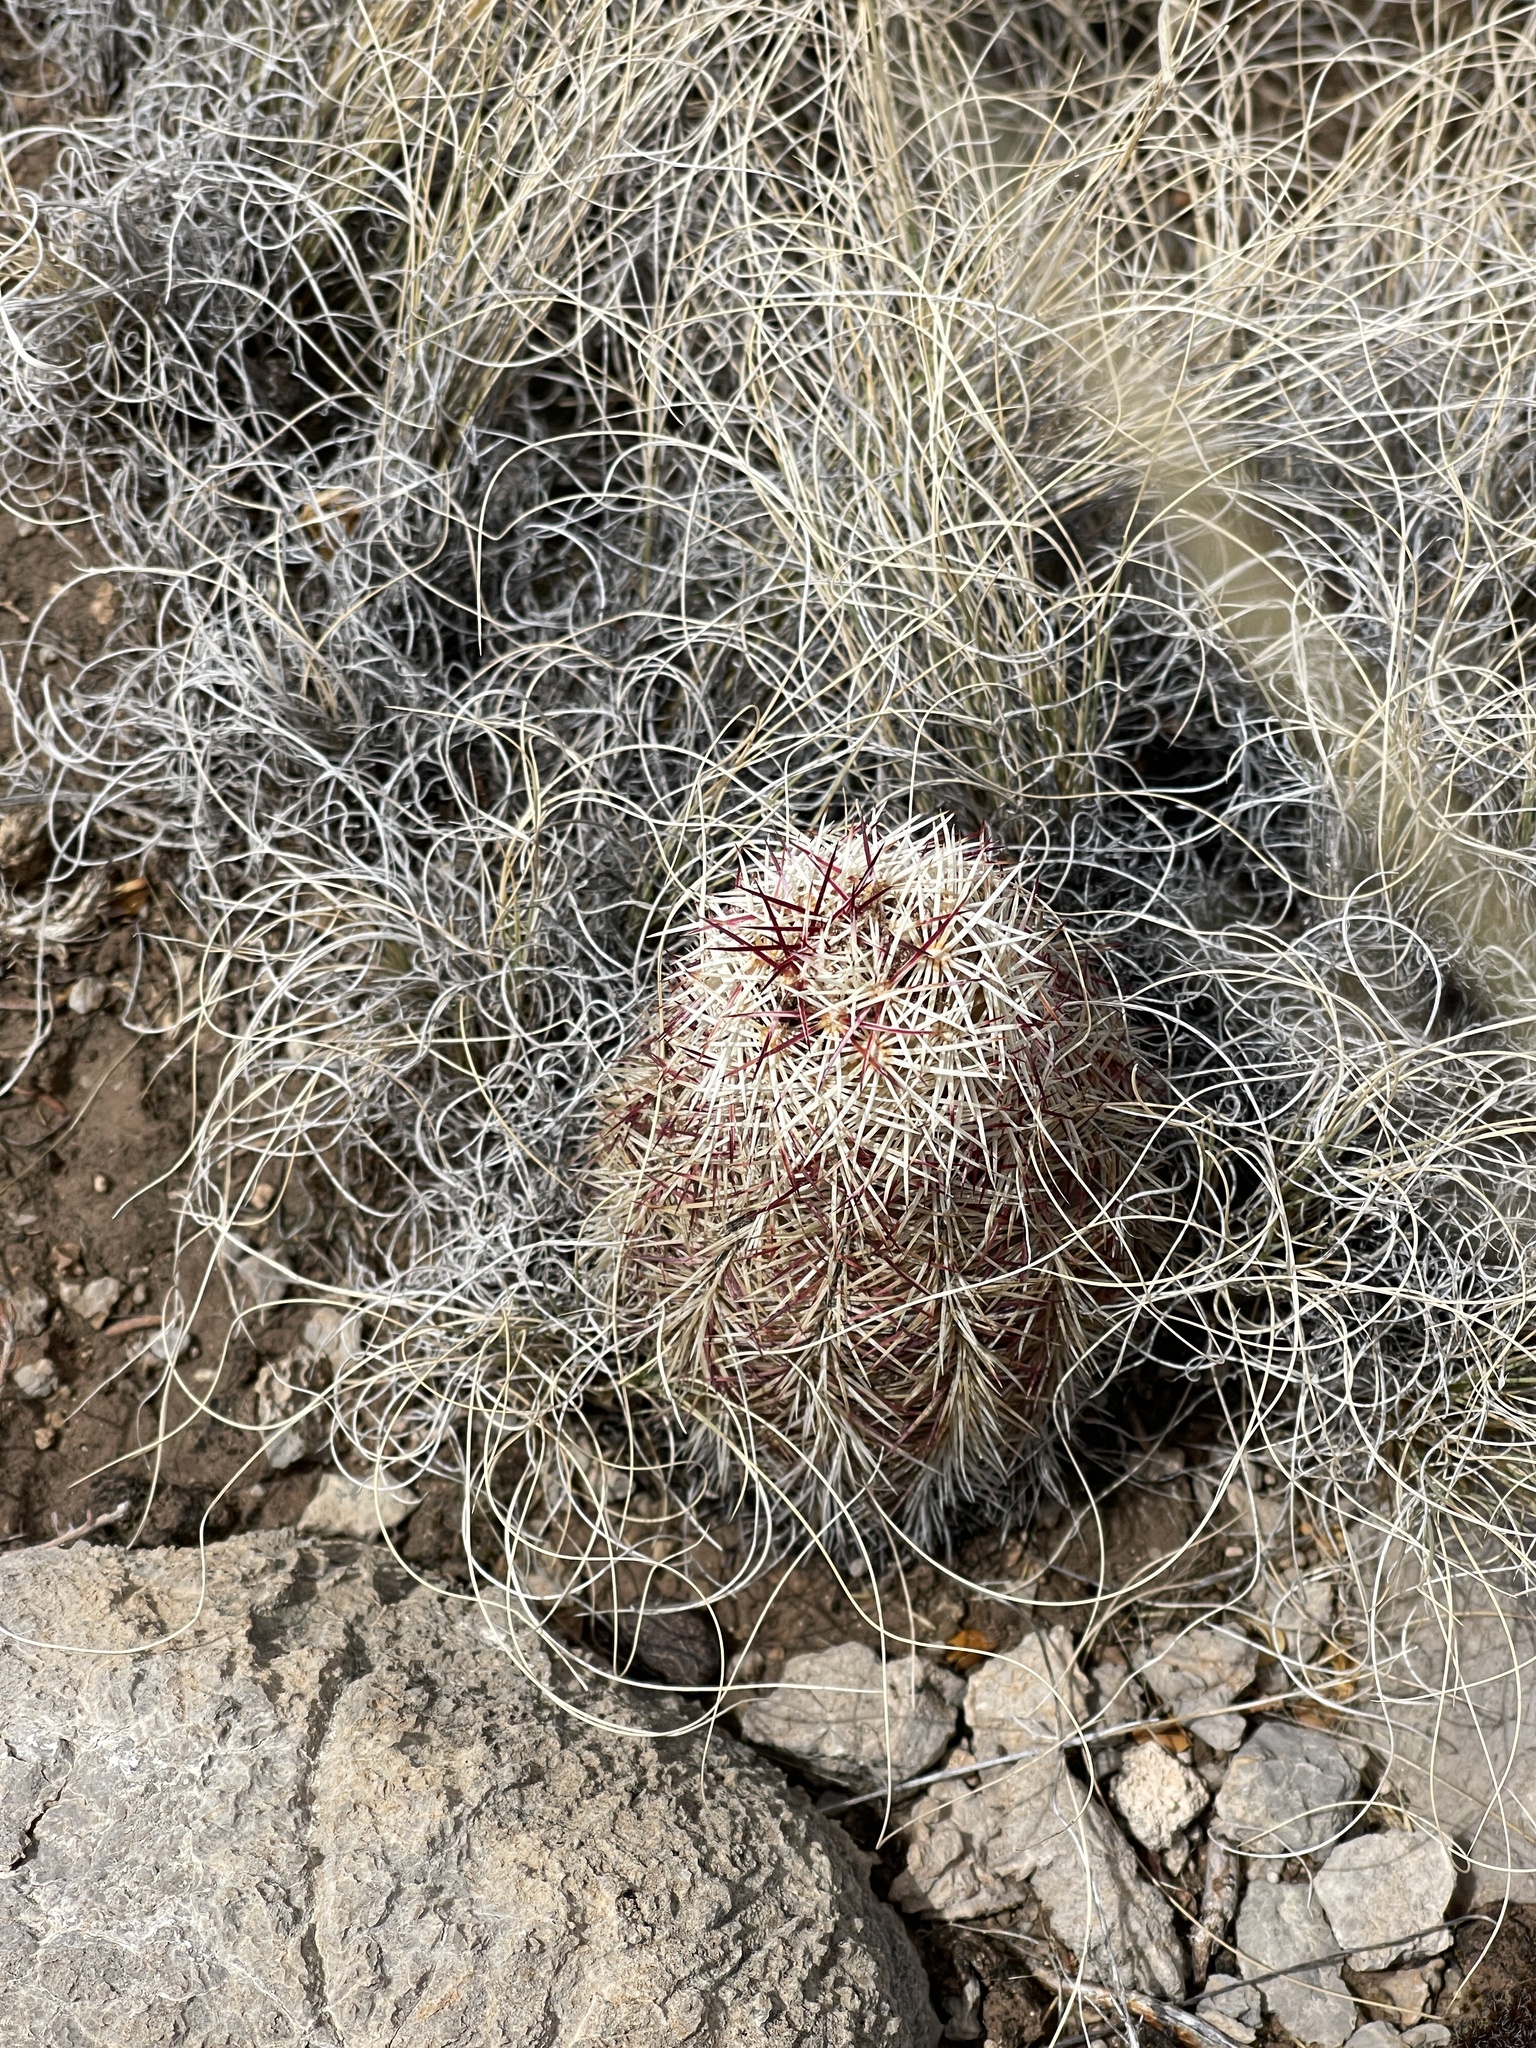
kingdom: Plantae
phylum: Tracheophyta
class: Magnoliopsida
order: Caryophyllales
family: Cactaceae
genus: Echinocereus
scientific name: Echinocereus viridiflorus
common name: Nylon hedgehog cactus
